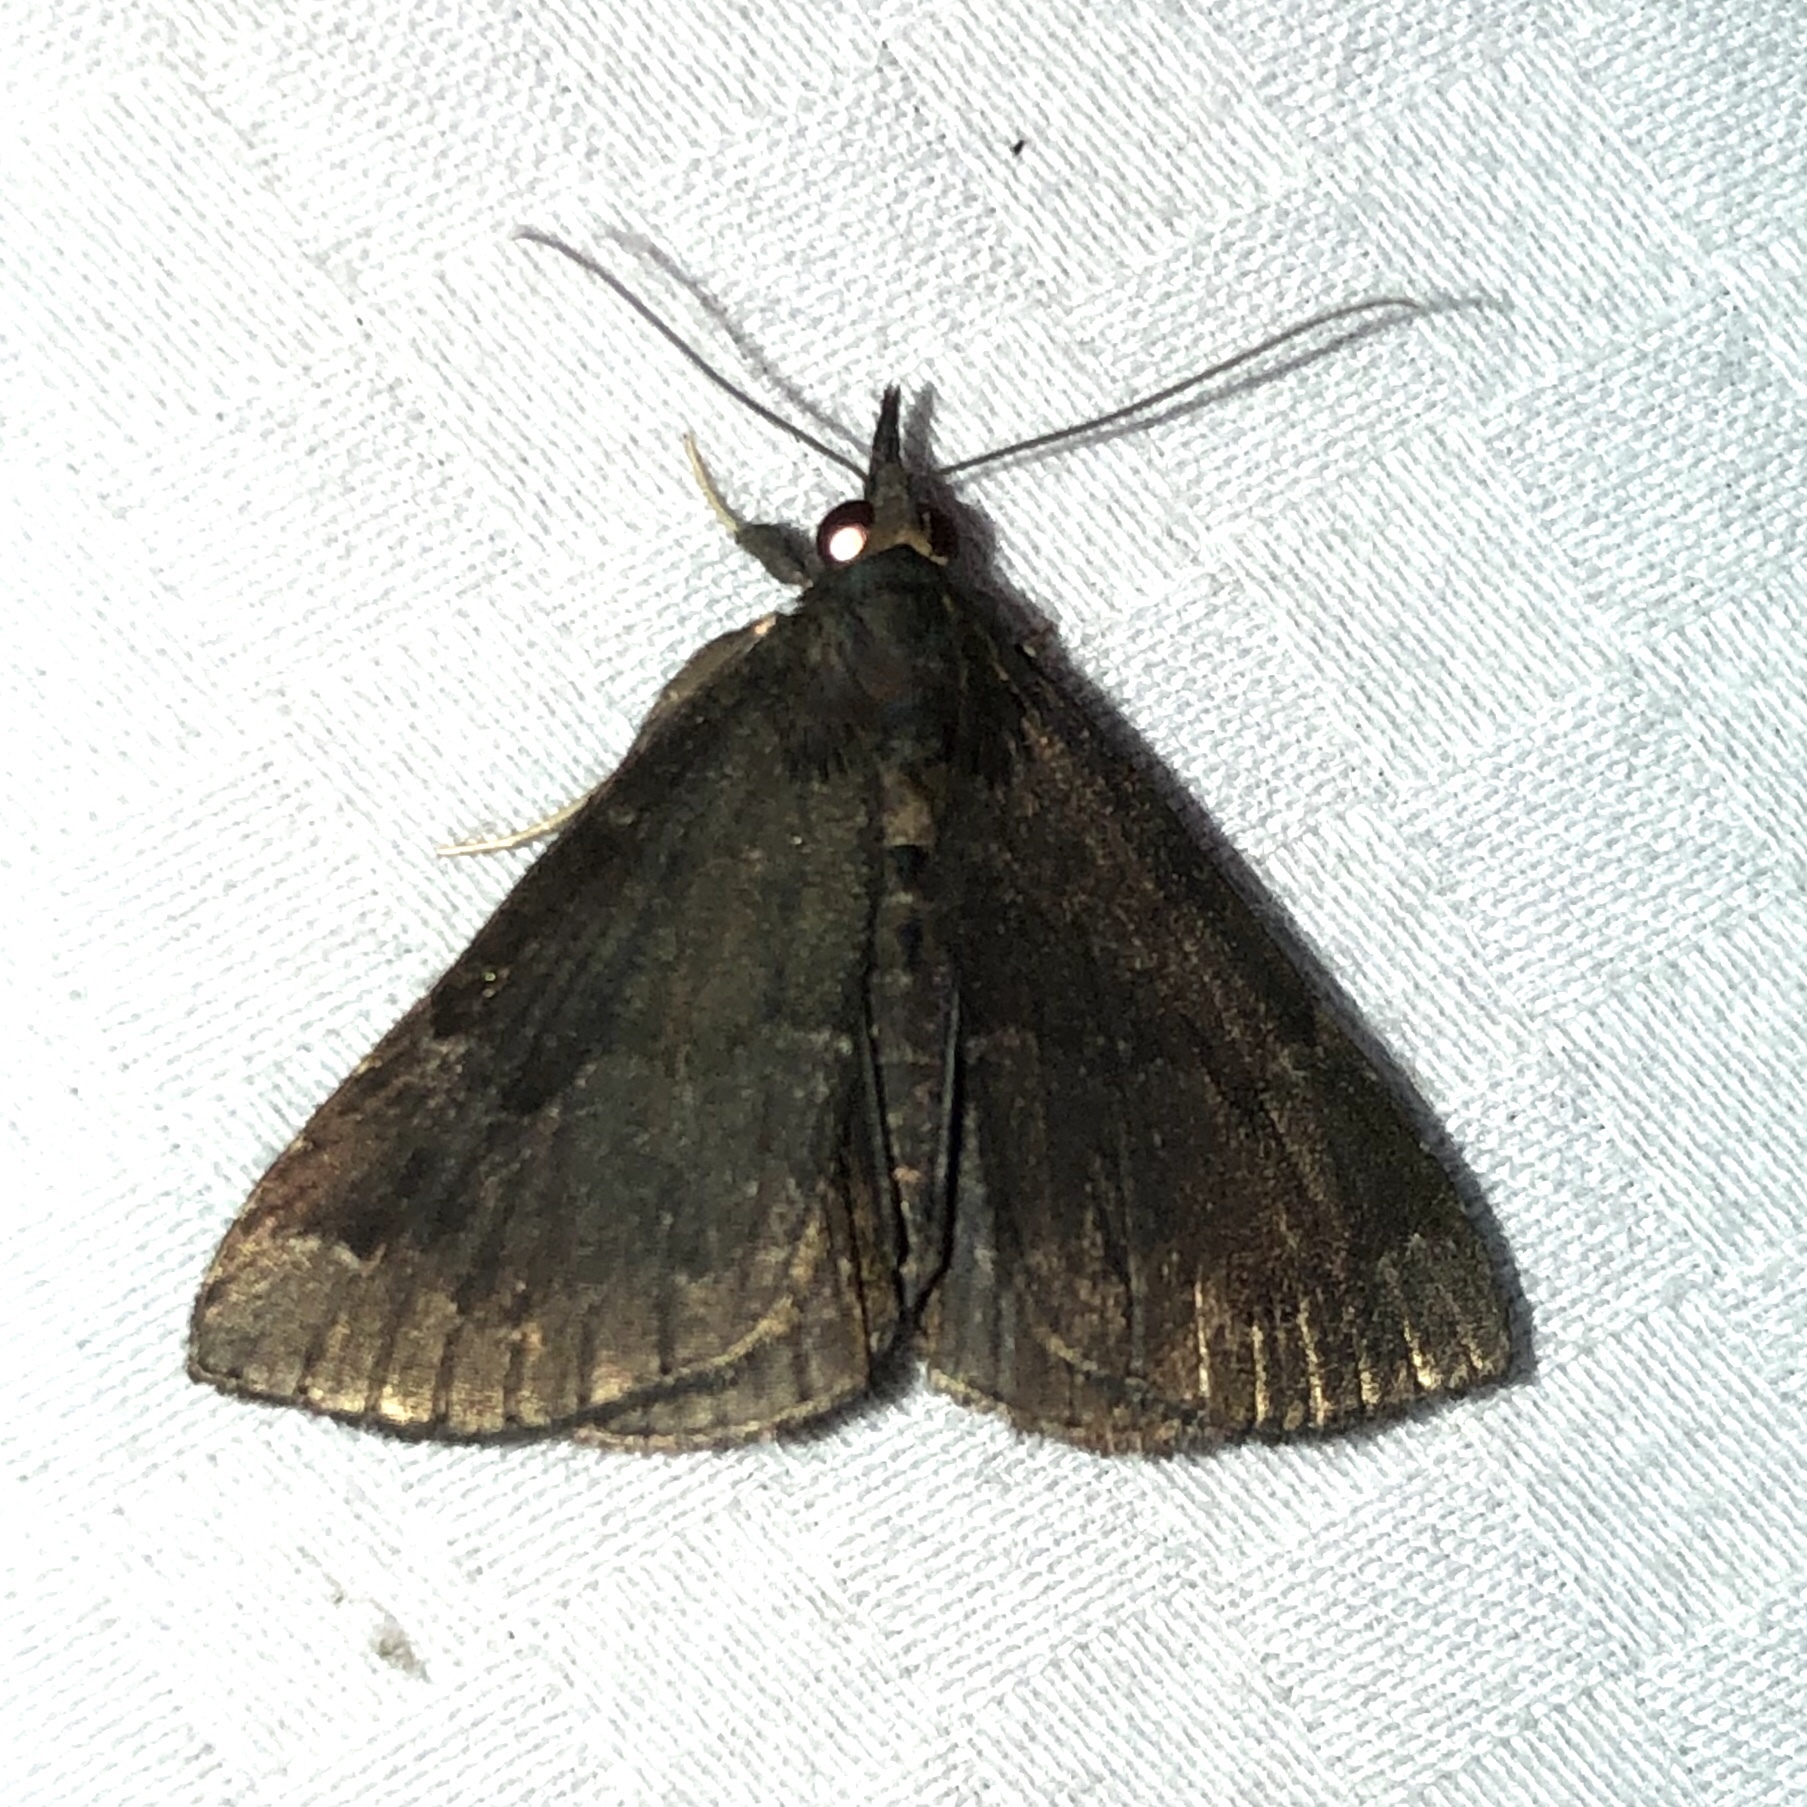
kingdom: Animalia
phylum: Arthropoda
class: Insecta
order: Lepidoptera
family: Erebidae
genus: Hypena
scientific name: Hypena madefactalis
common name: Gray-edged snout
